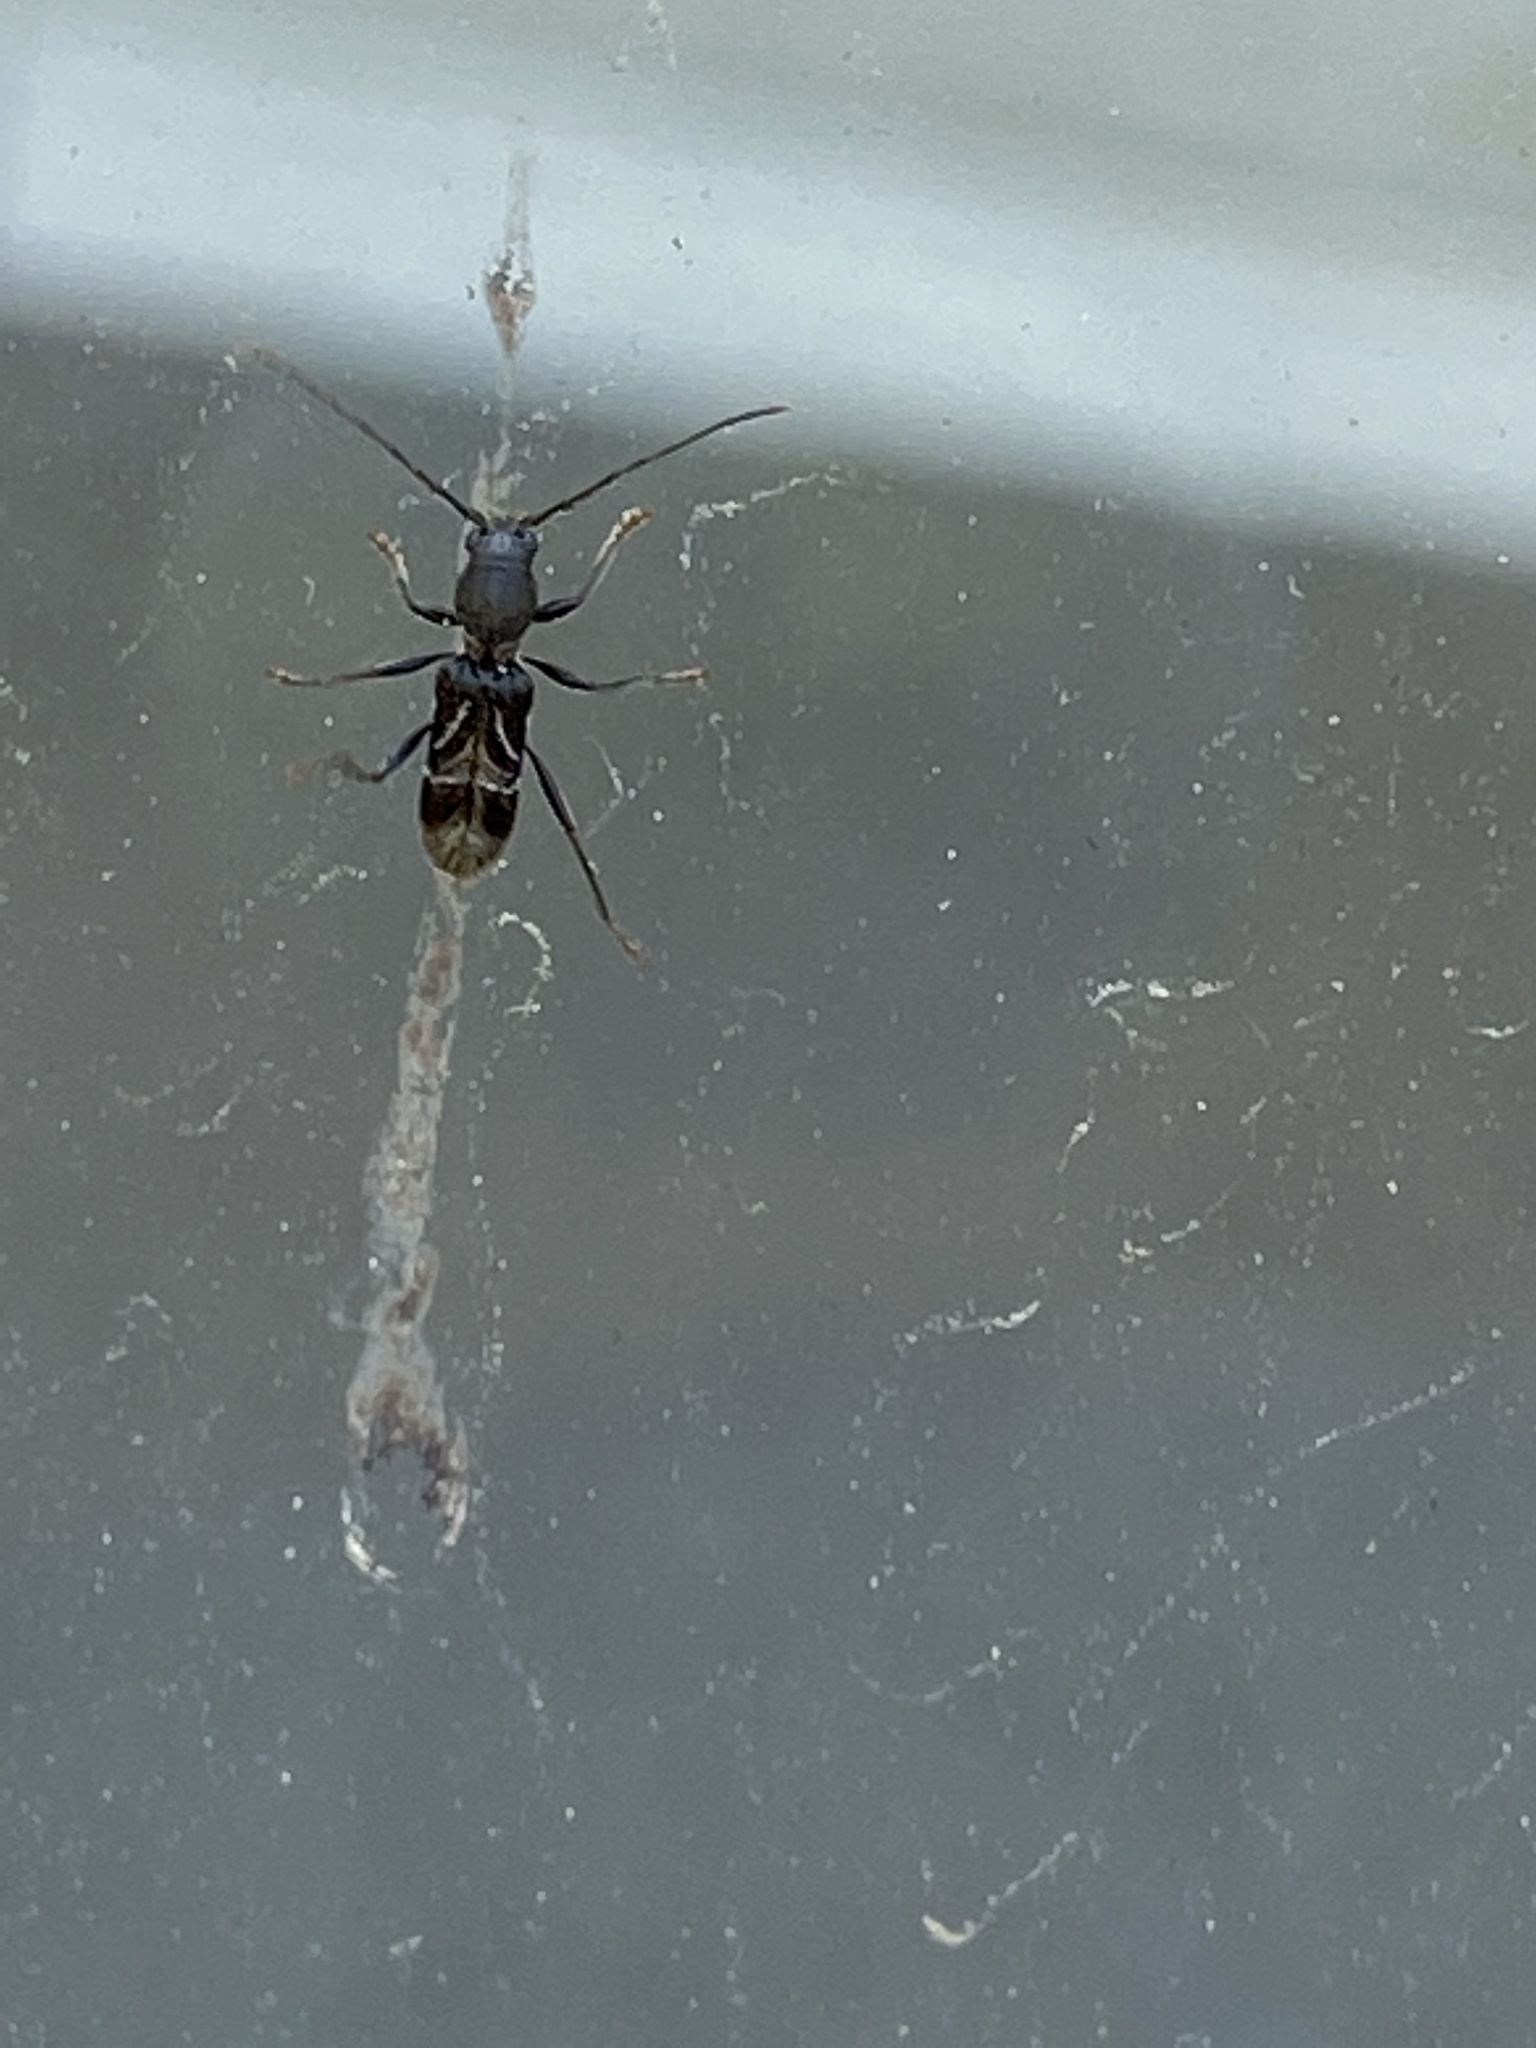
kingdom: Animalia
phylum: Arthropoda
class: Insecta
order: Coleoptera
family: Cerambycidae
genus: Cyrtophorus
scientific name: Cyrtophorus verrucosus
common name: Ant-like longhorn beetle
